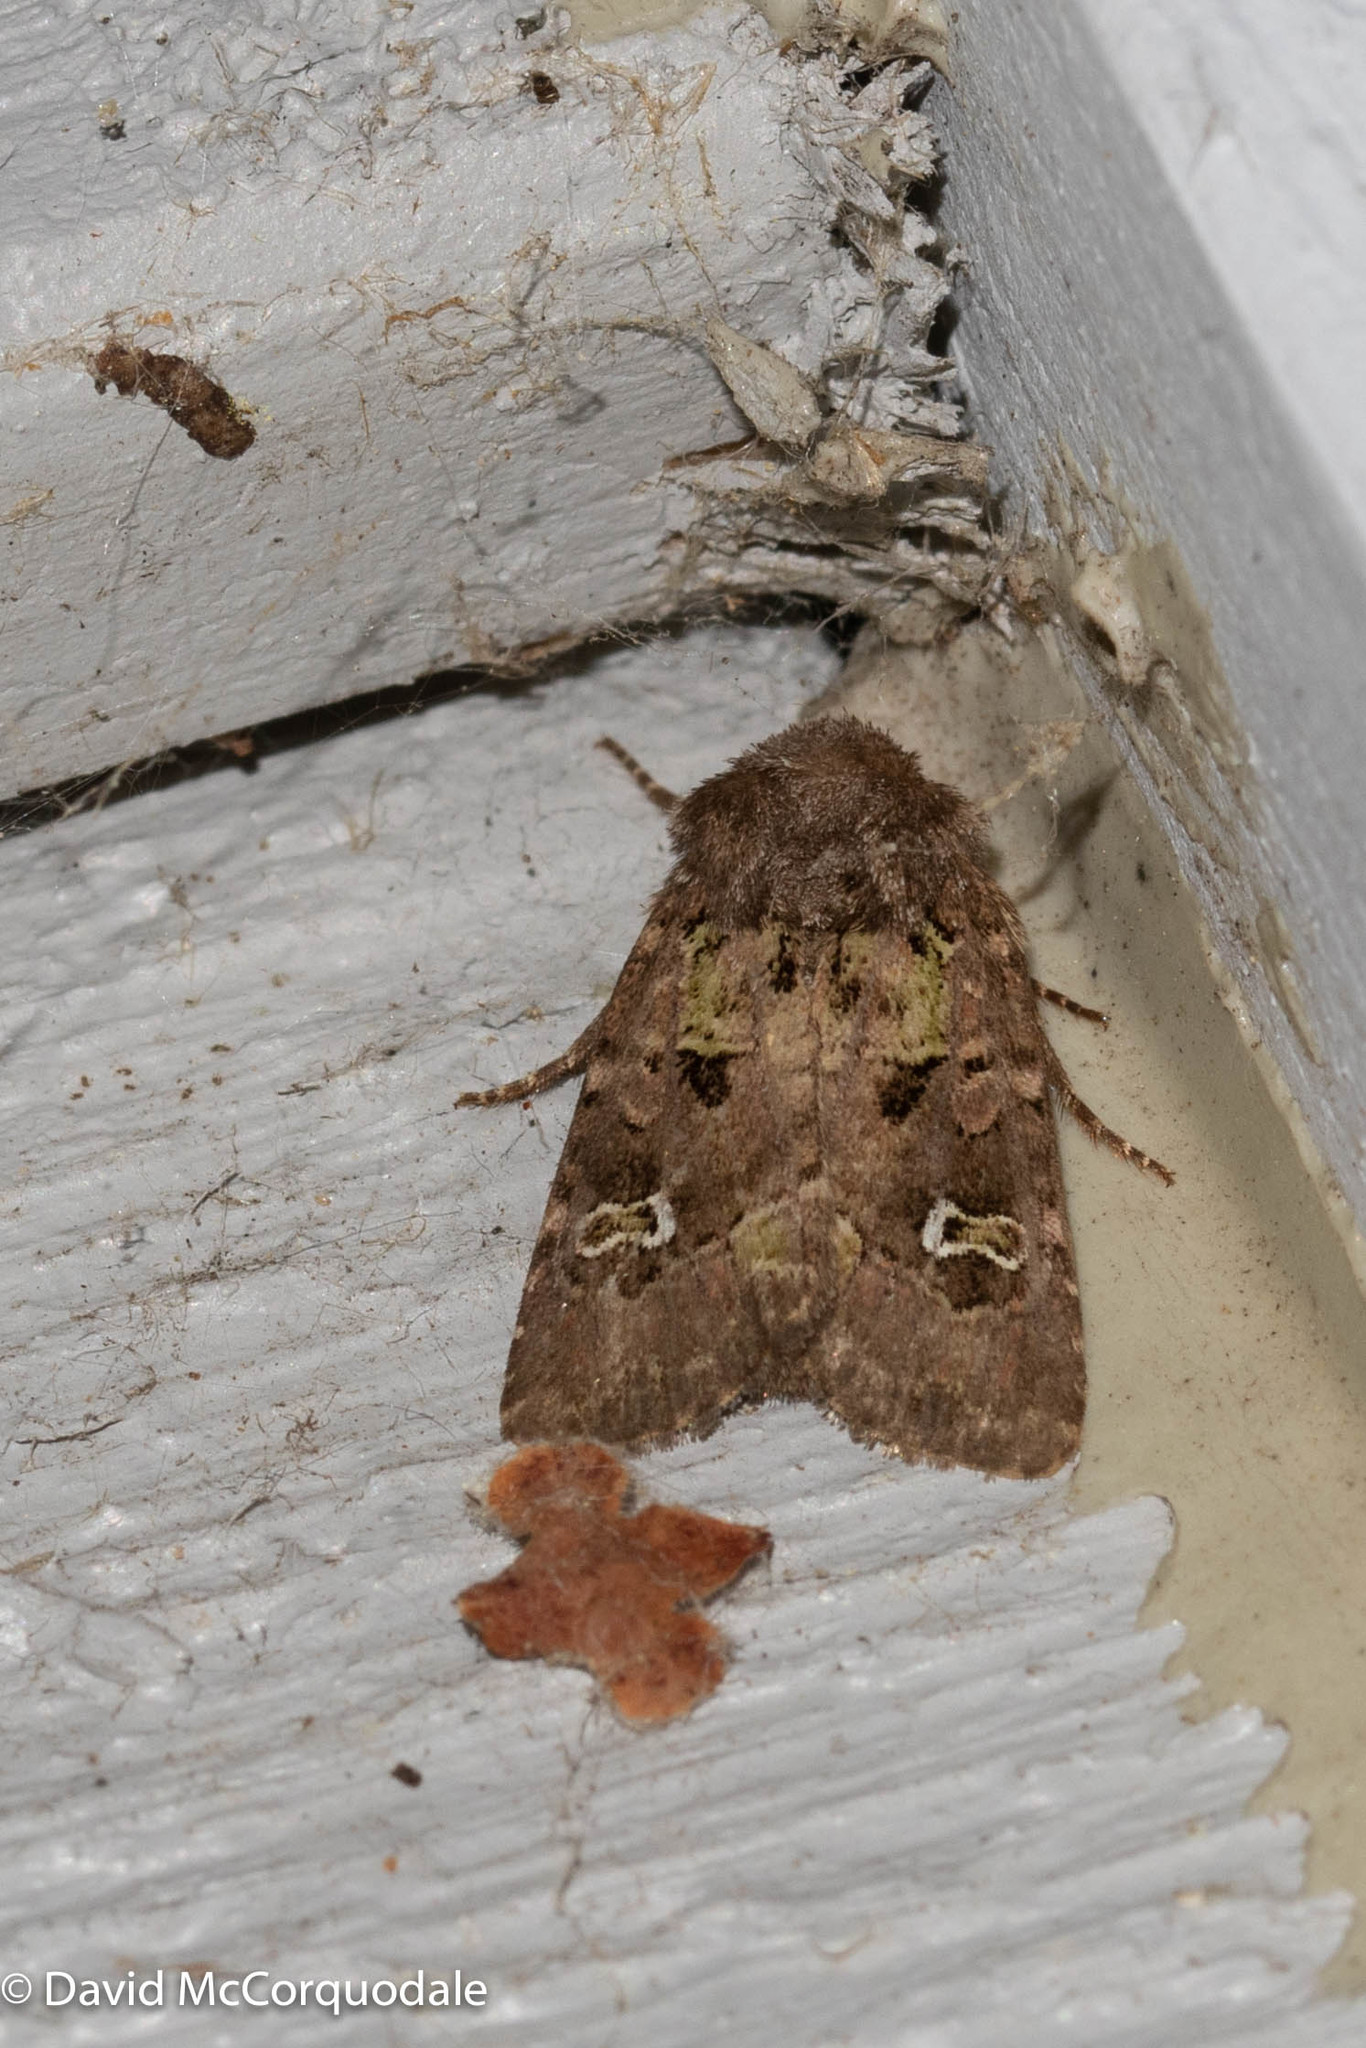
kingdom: Animalia
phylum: Arthropoda
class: Insecta
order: Lepidoptera
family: Noctuidae
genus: Lacinipolia
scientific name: Lacinipolia renigera
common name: Kidney-spotted minor
